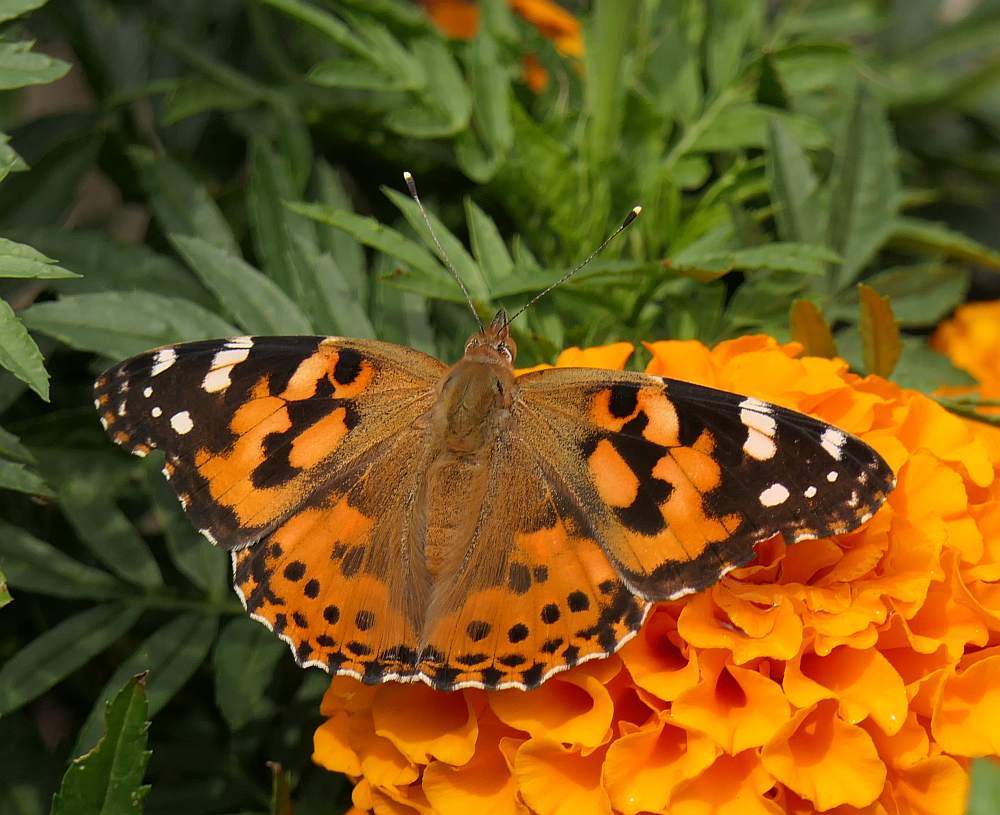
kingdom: Animalia
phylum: Arthropoda
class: Insecta
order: Lepidoptera
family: Nymphalidae
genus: Vanessa
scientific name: Vanessa cardui
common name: Painted lady
